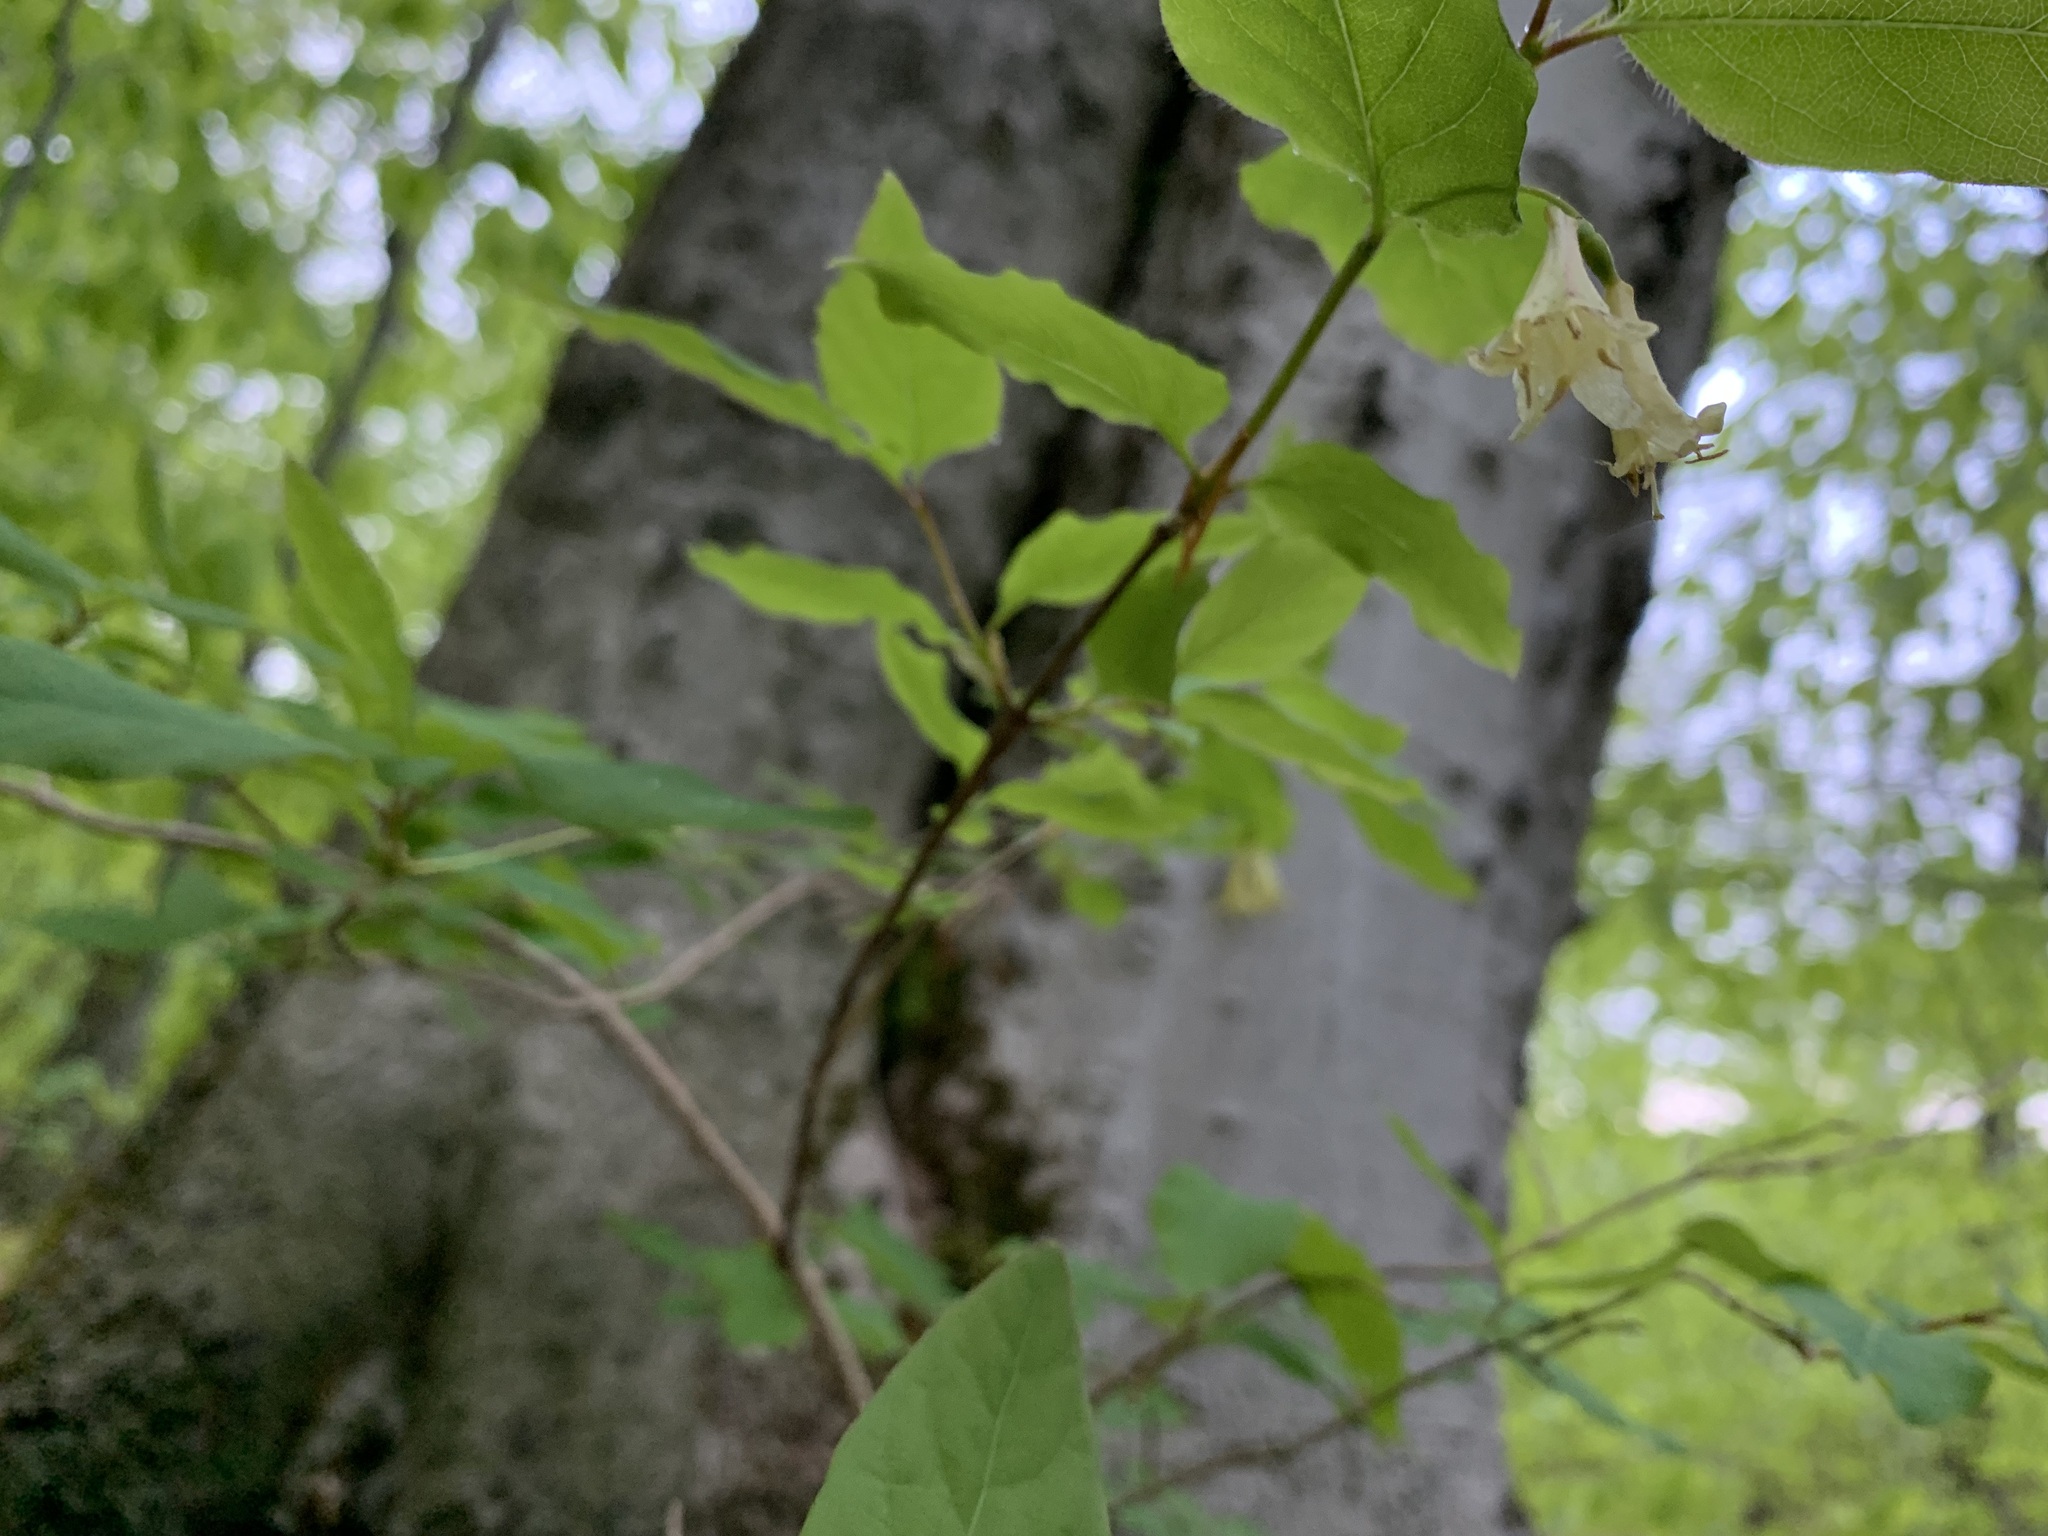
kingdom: Plantae
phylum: Tracheophyta
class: Magnoliopsida
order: Dipsacales
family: Caprifoliaceae
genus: Lonicera
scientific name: Lonicera canadensis
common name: American fly-honeysuckle
